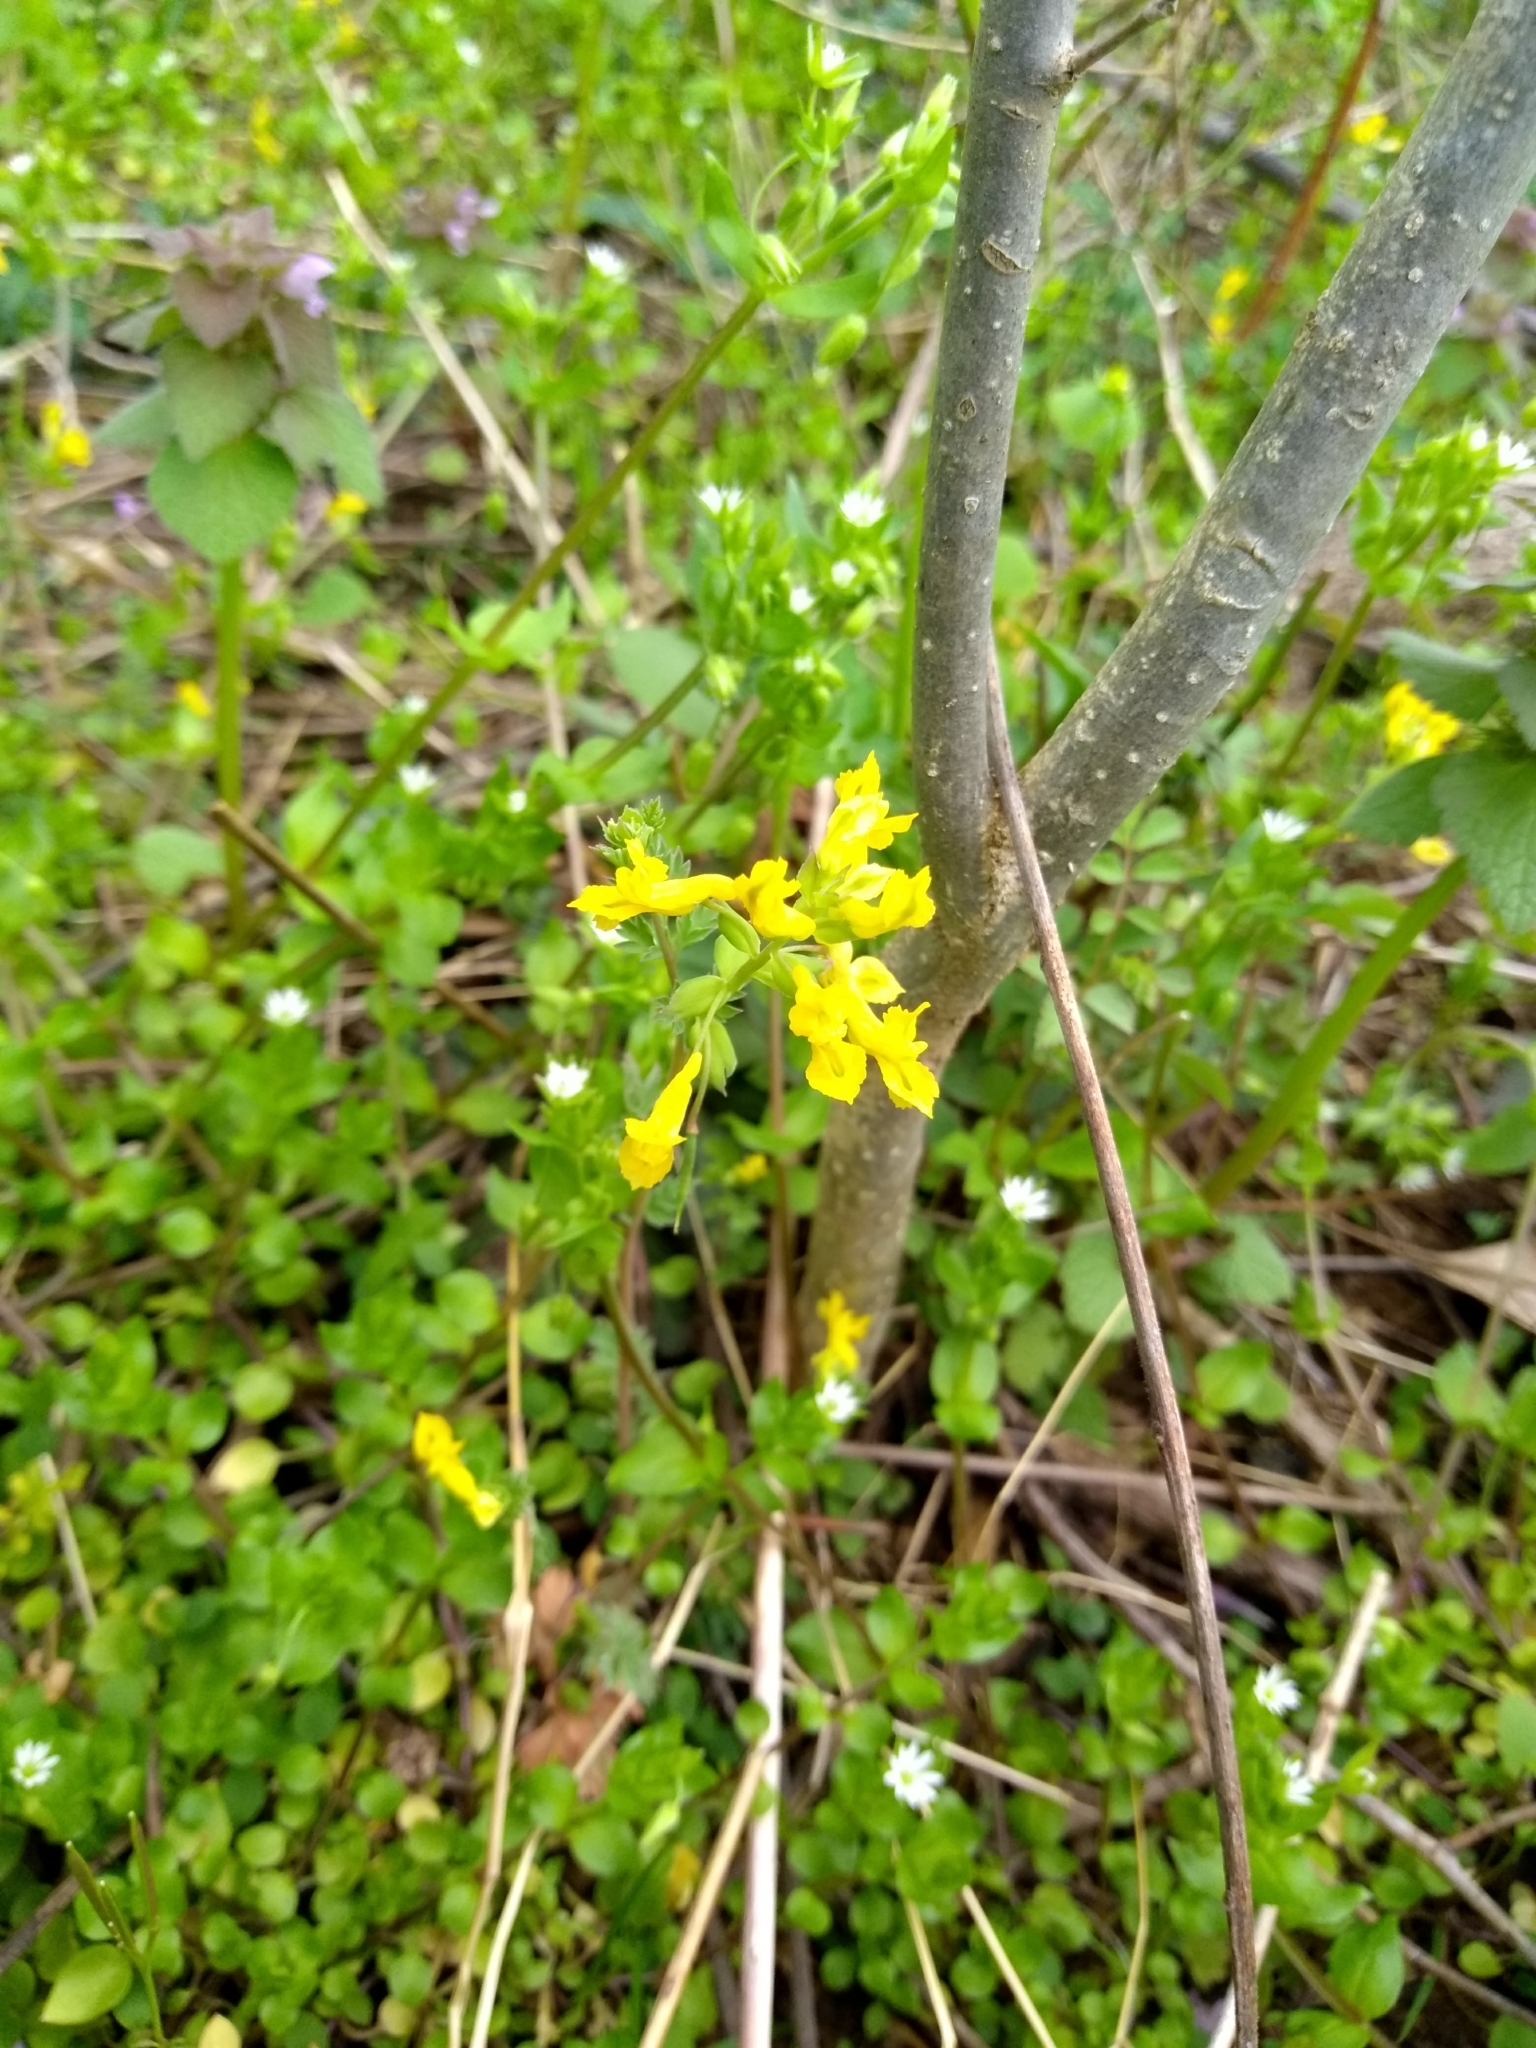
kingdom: Plantae
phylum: Tracheophyta
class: Magnoliopsida
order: Ranunculales
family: Papaveraceae
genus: Corydalis
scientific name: Corydalis flavula
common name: Yellow corydalis
